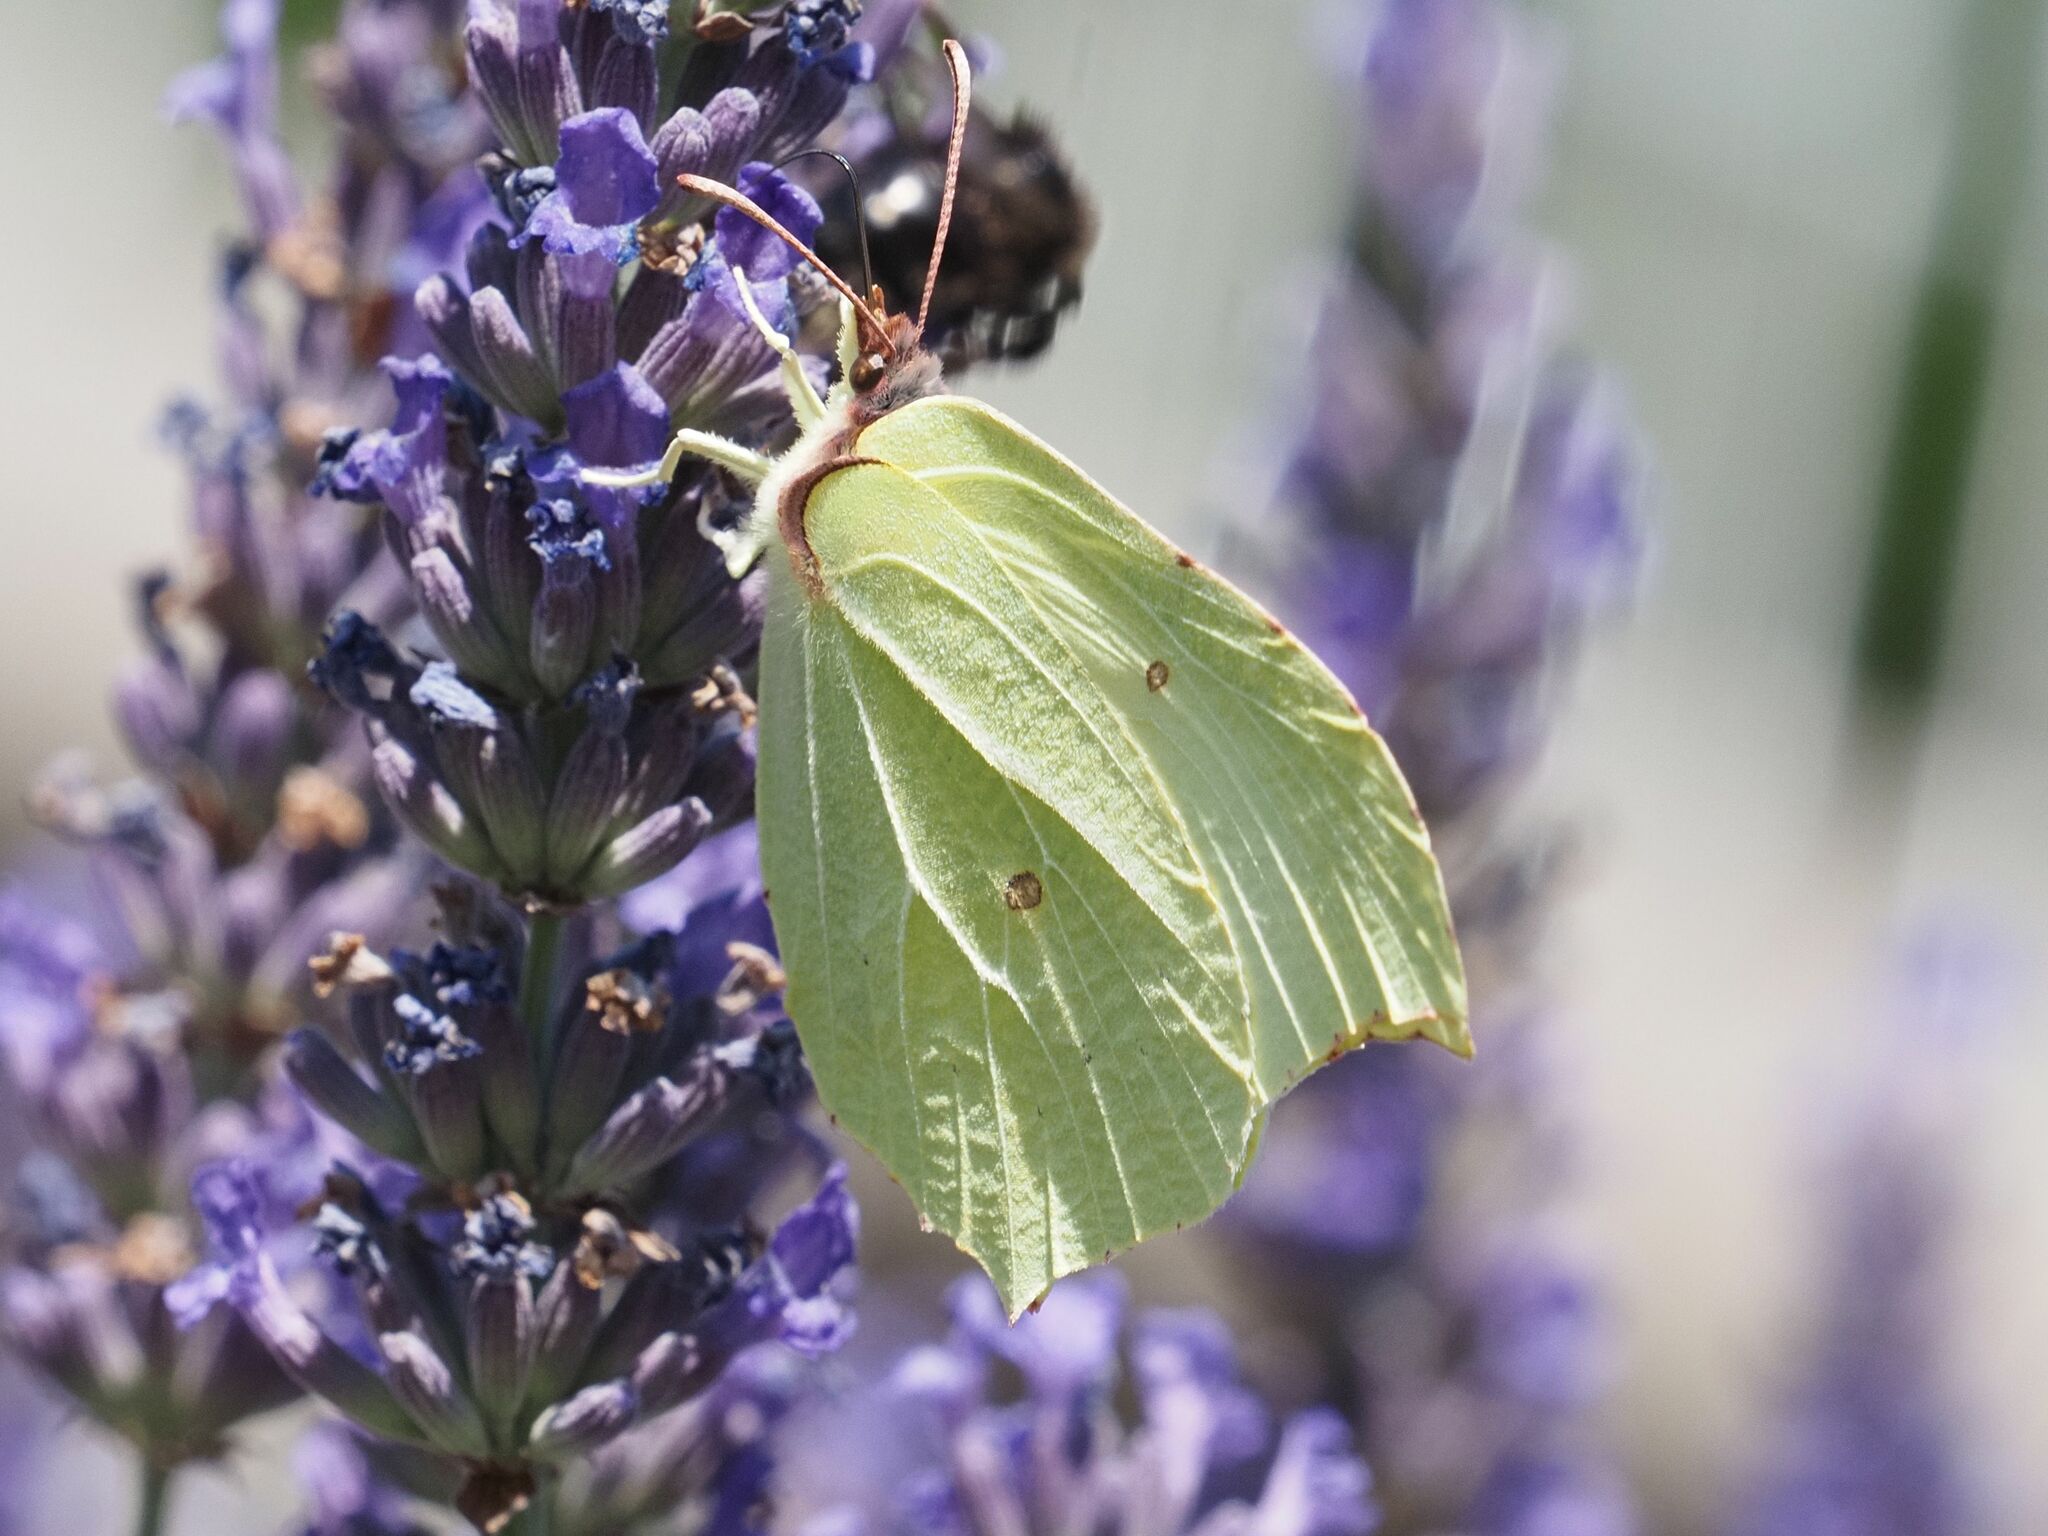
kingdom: Animalia
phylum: Arthropoda
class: Insecta
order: Lepidoptera
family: Pieridae
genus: Gonepteryx
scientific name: Gonepteryx rhamni
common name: Brimstone
